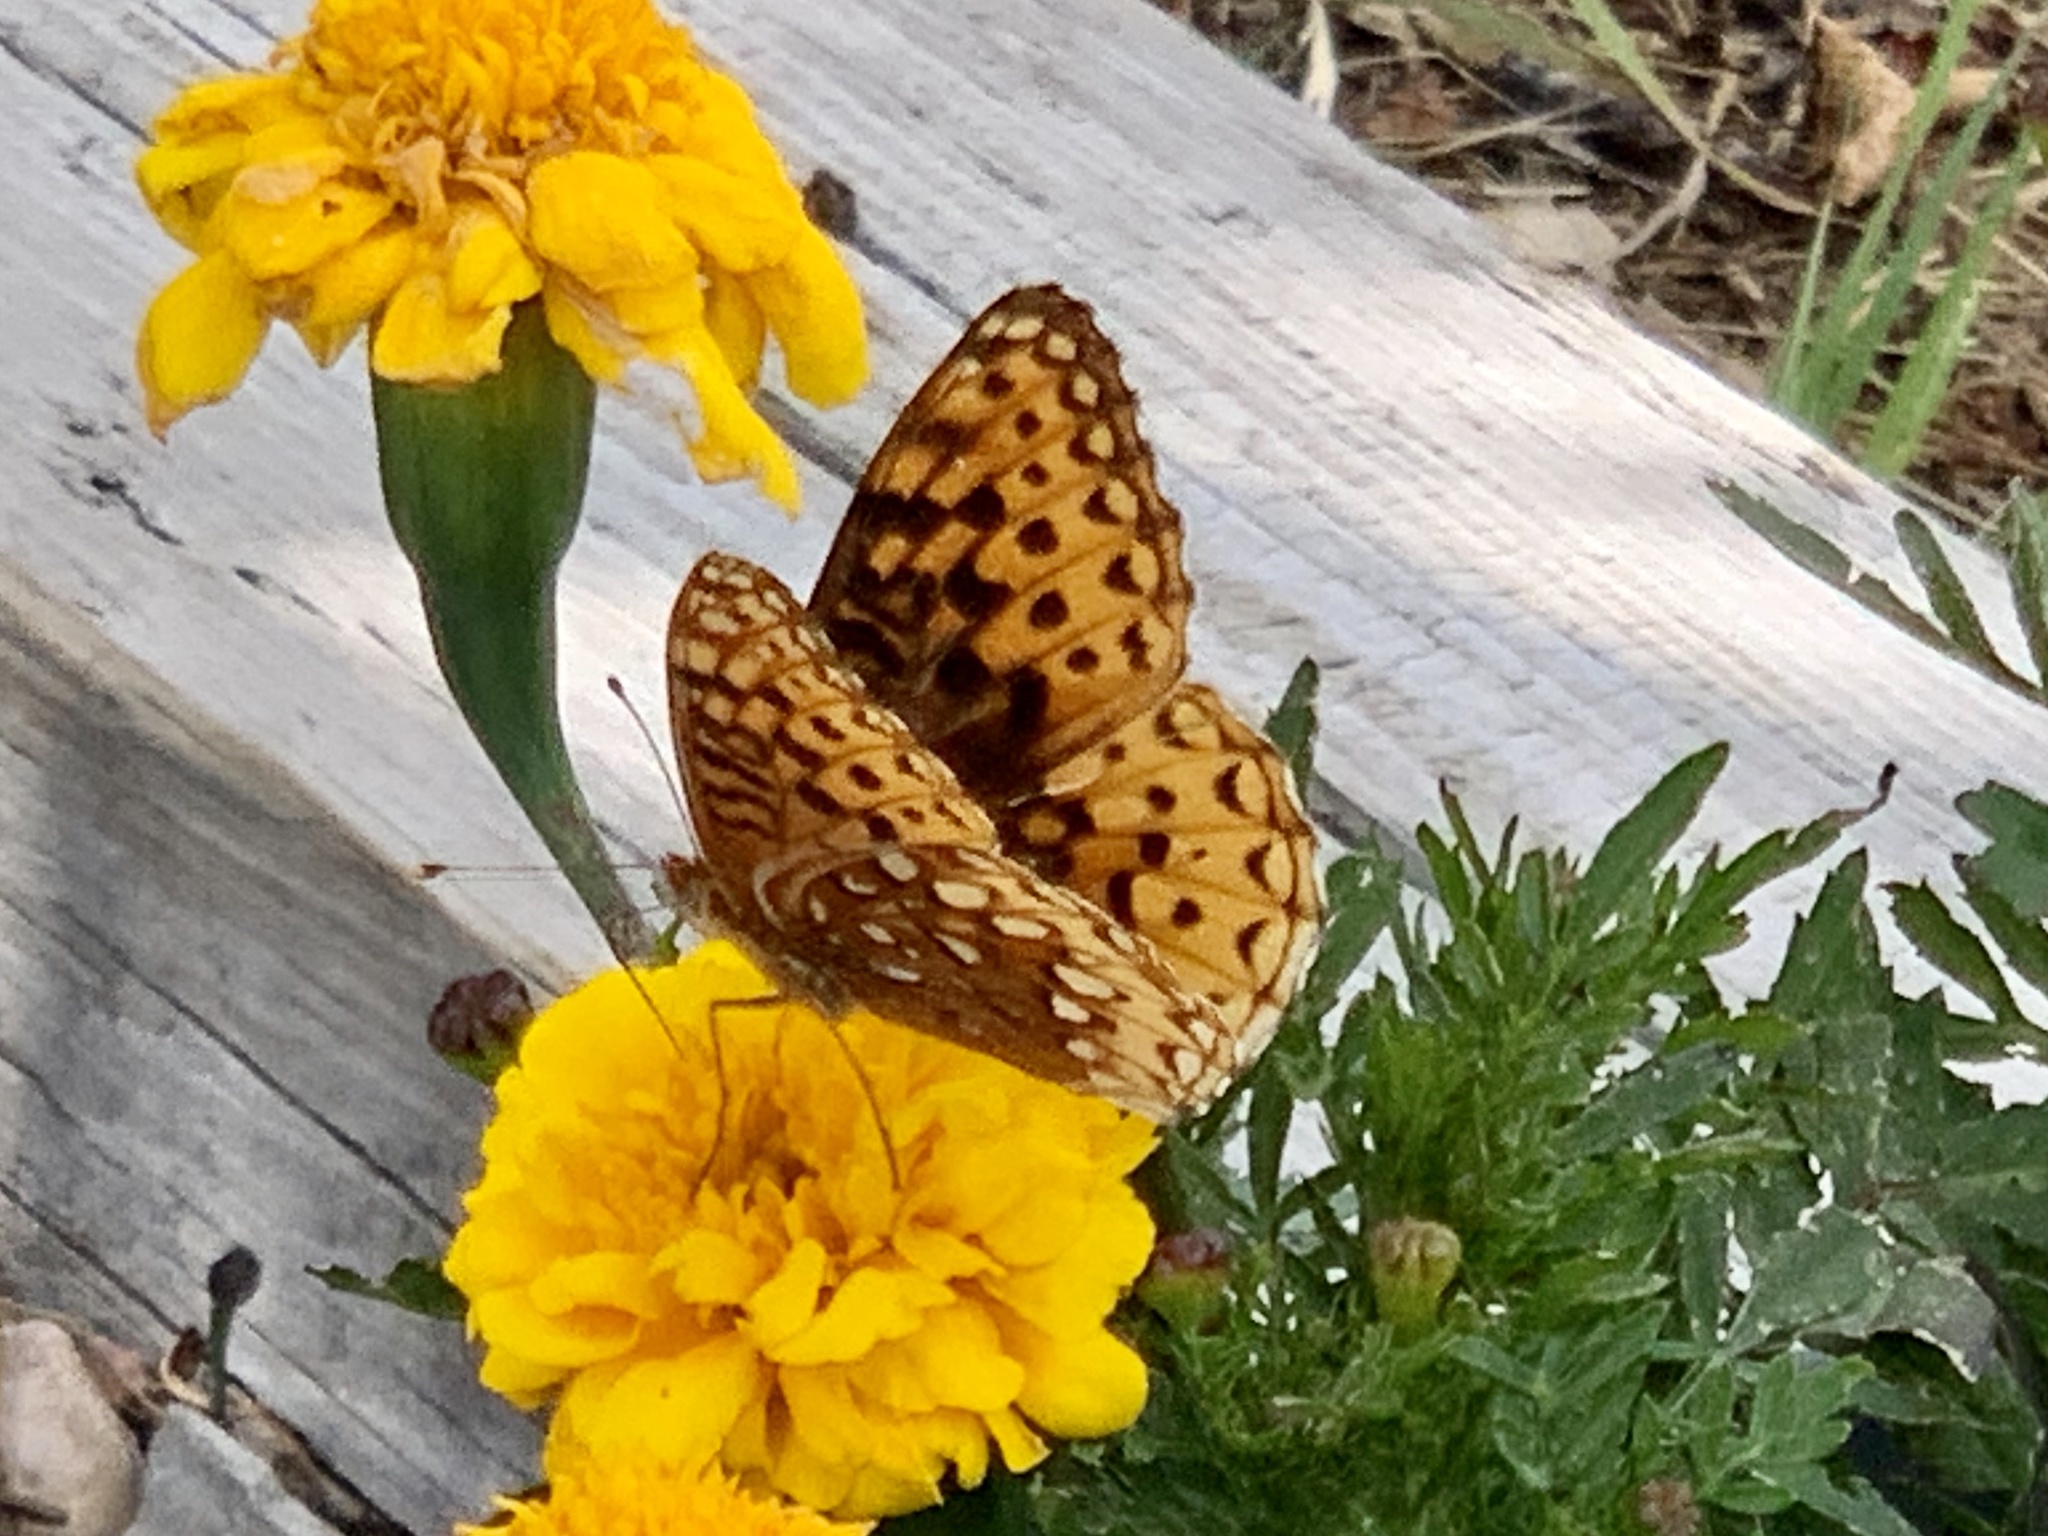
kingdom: Animalia
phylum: Arthropoda
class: Insecta
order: Lepidoptera
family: Nymphalidae
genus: Speyeria
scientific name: Speyeria atlantis
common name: Atlantis fritillary
